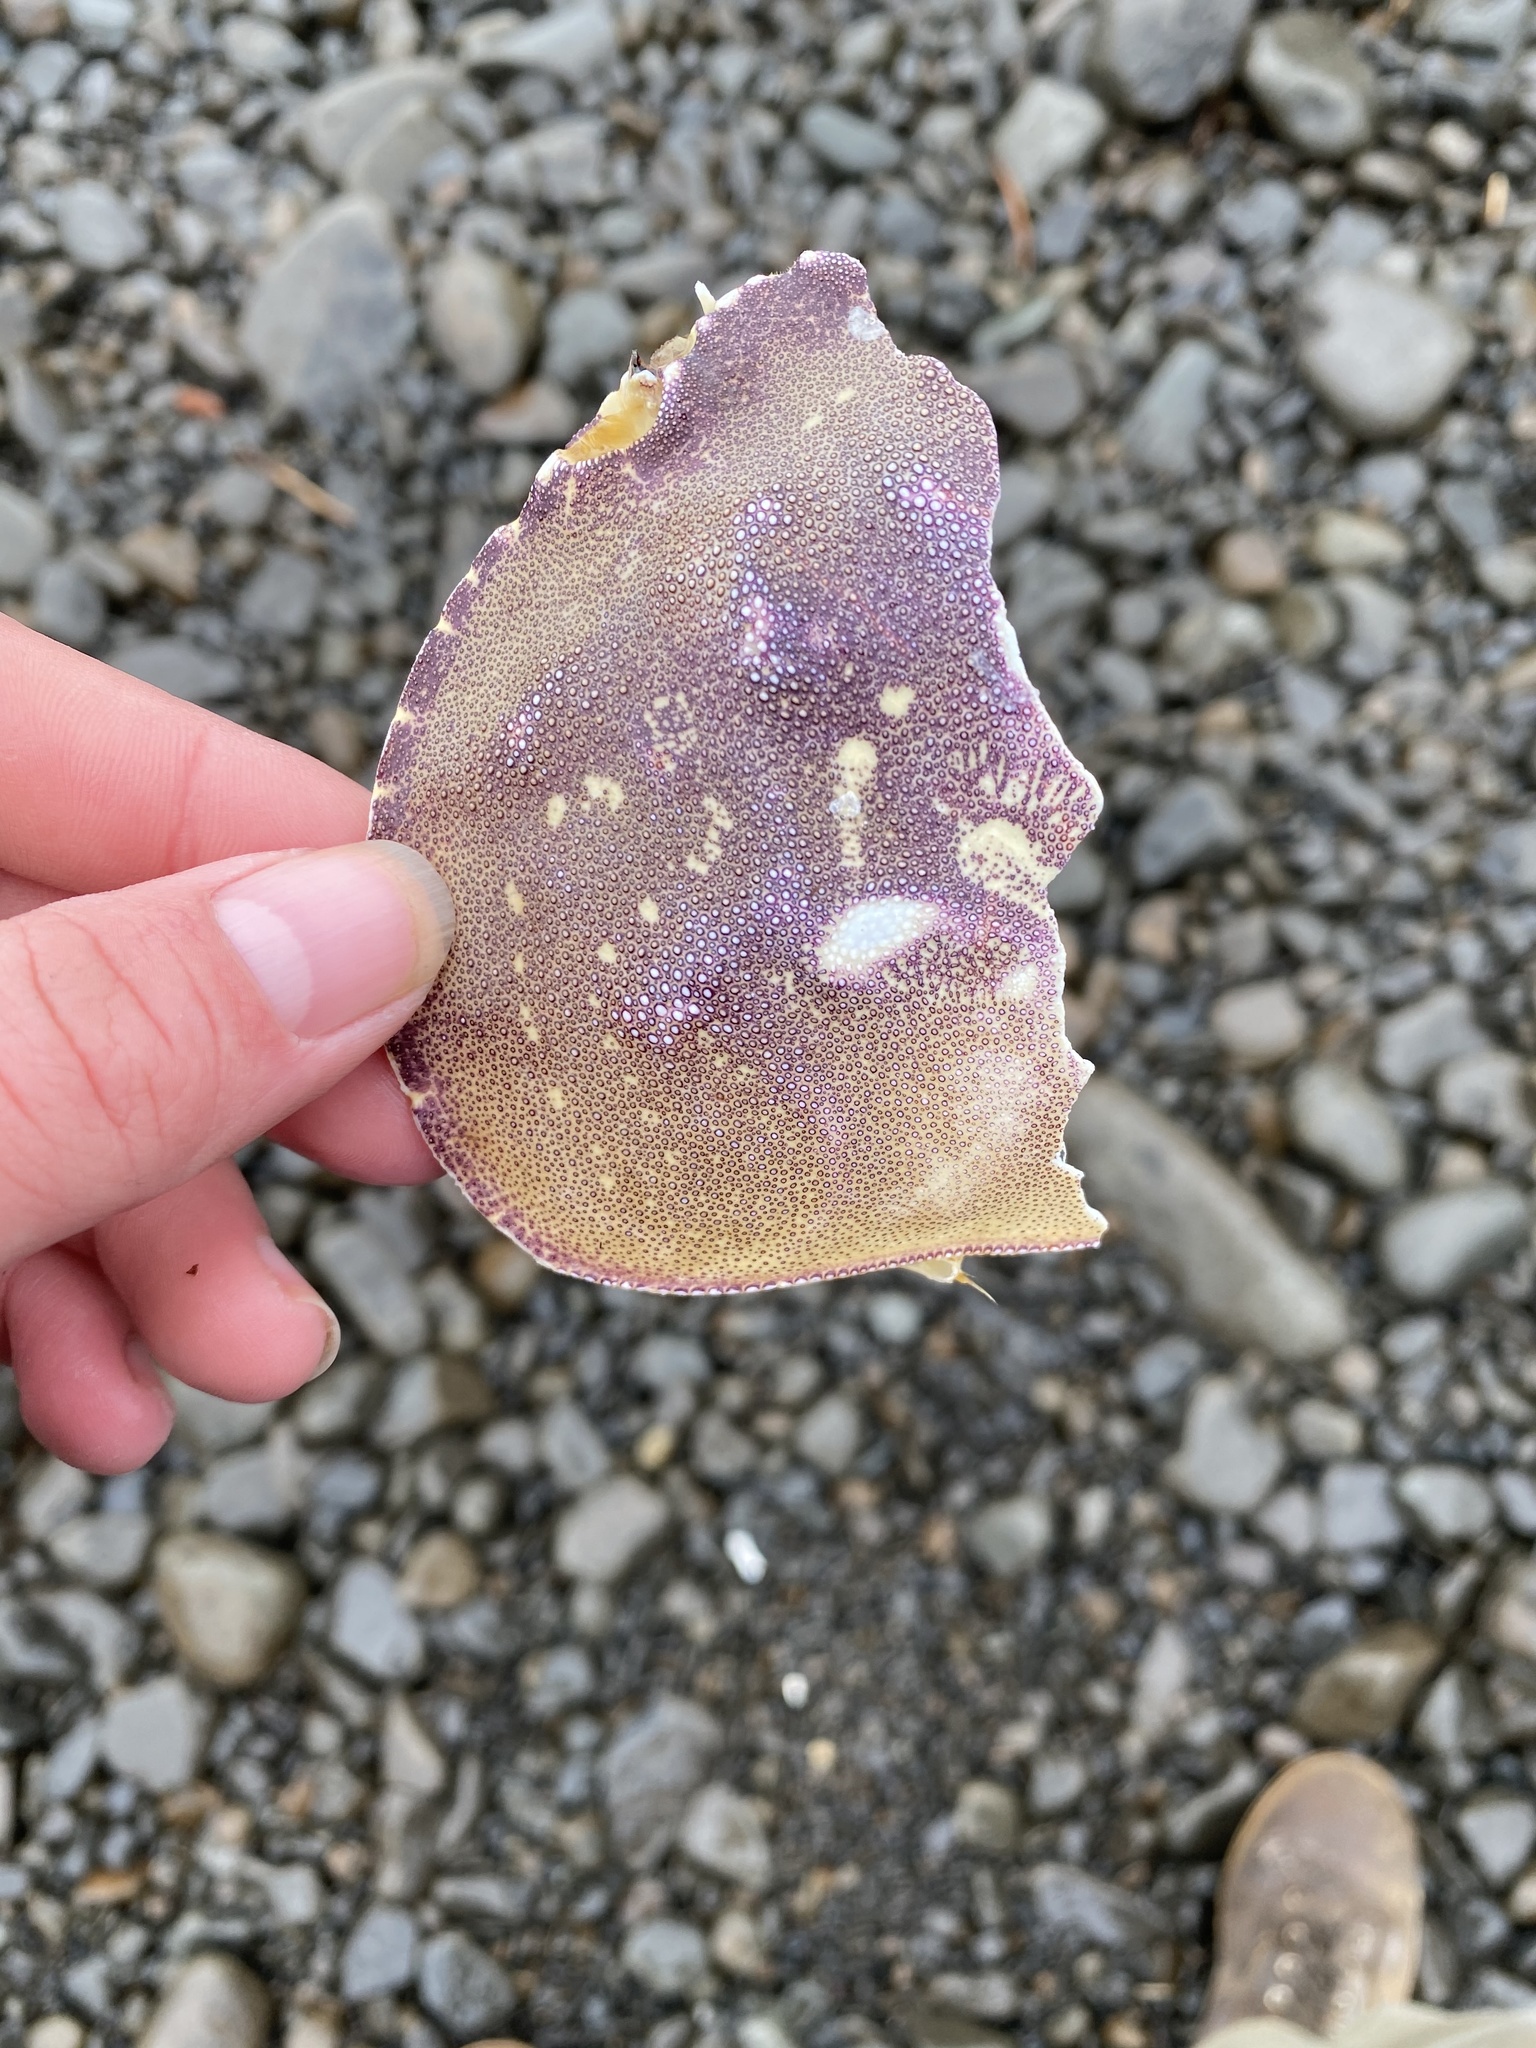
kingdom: Animalia
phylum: Arthropoda
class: Malacostraca
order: Decapoda
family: Cancridae
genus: Metacarcinus
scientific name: Metacarcinus magister
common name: Californian crab
